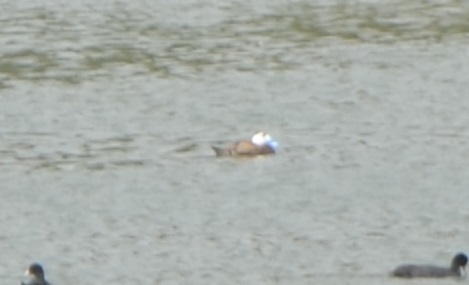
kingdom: Animalia
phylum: Chordata
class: Aves
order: Anseriformes
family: Anatidae
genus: Oxyura
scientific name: Oxyura leucocephala
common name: White-headed duck
